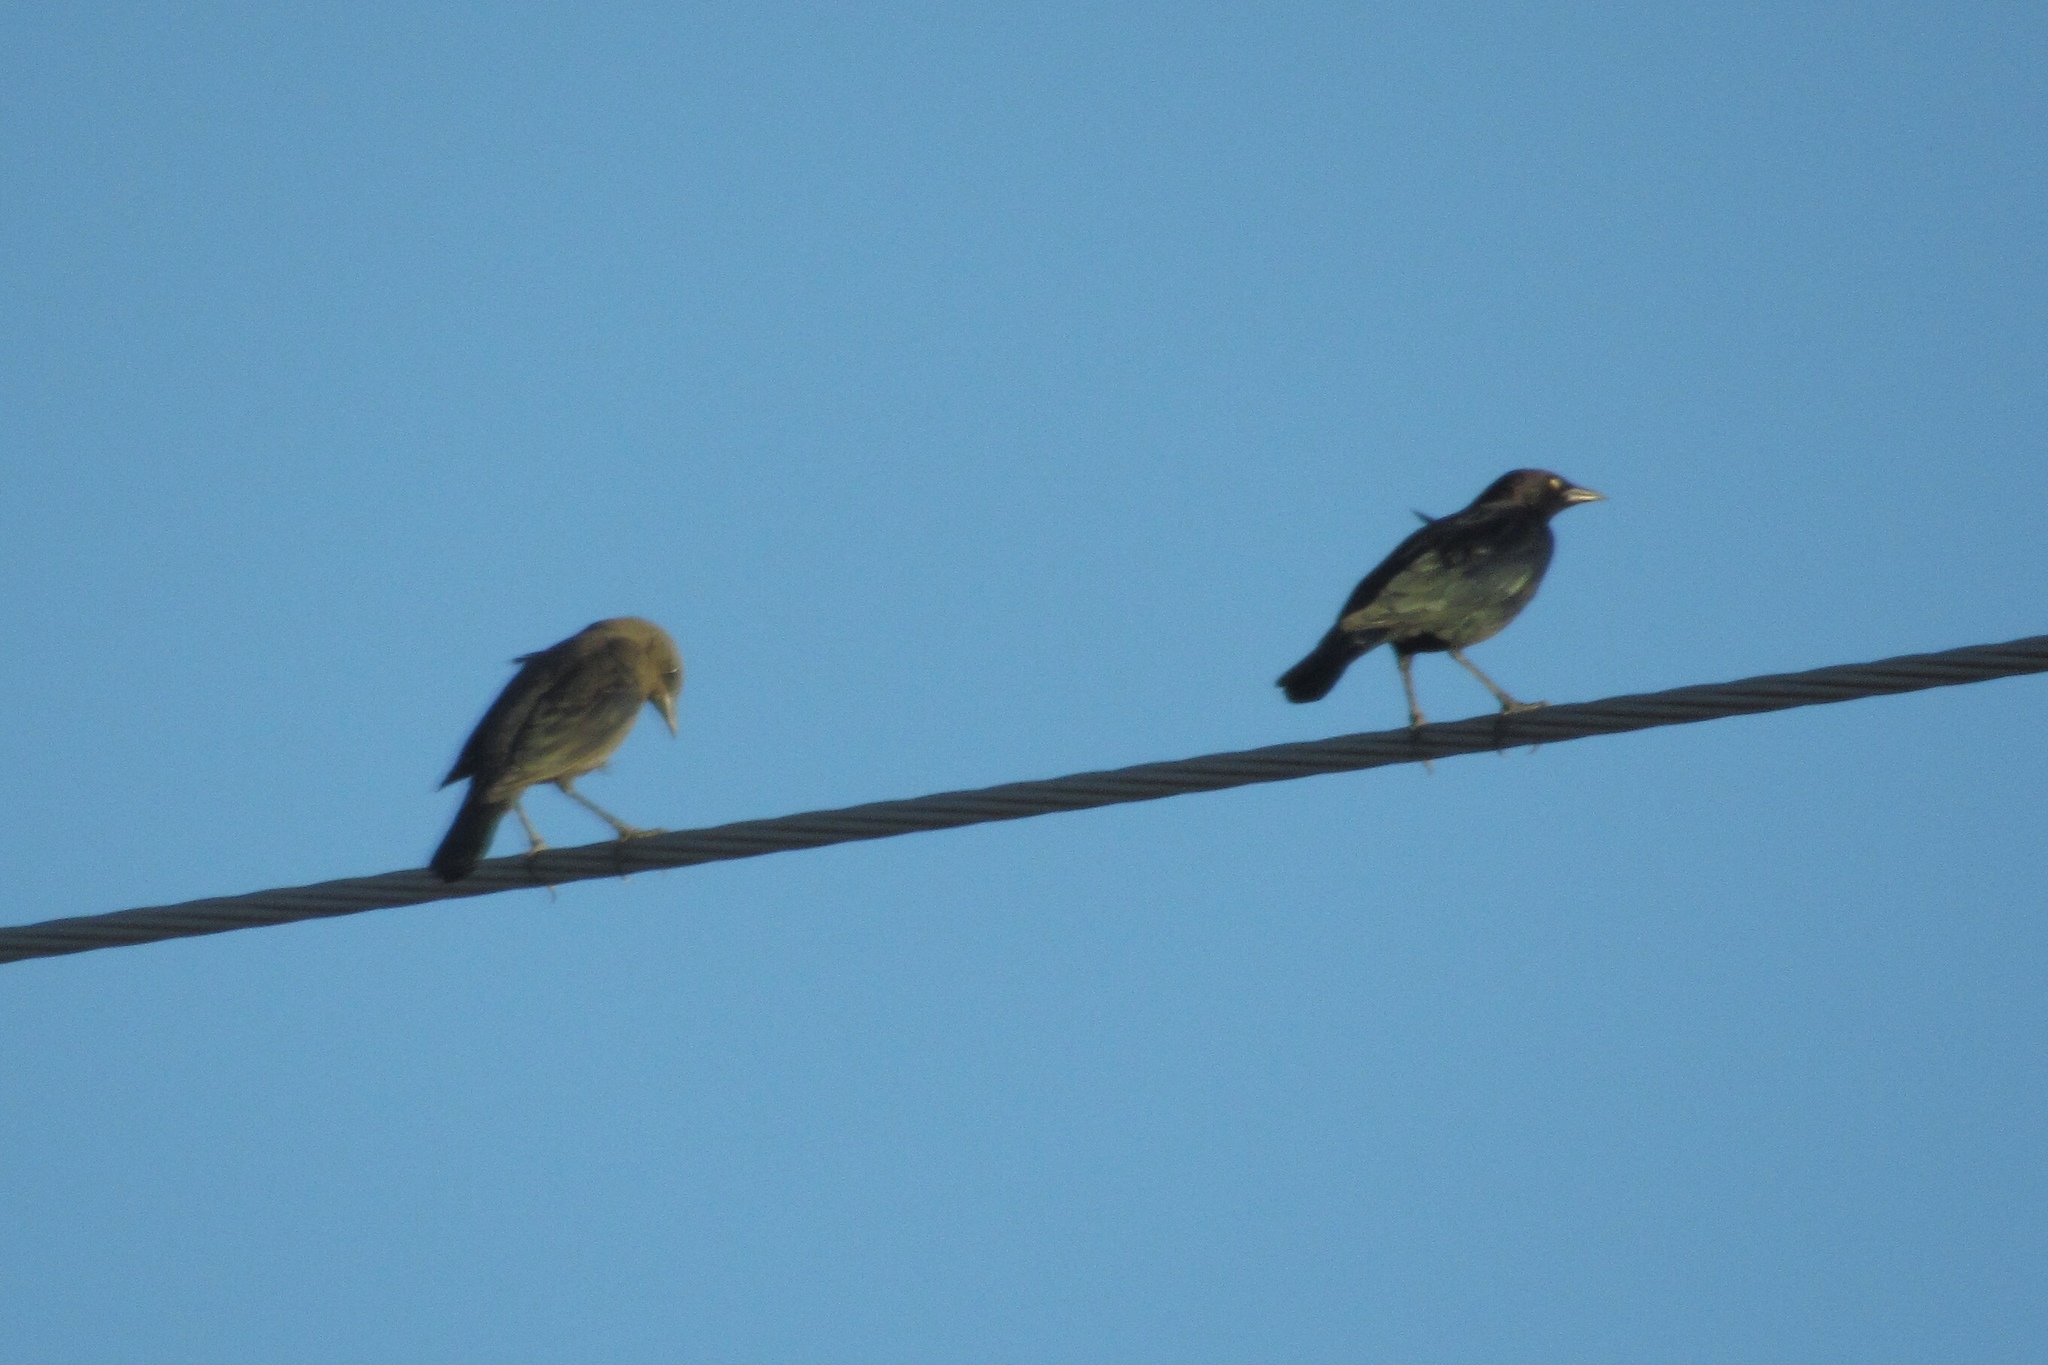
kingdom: Animalia
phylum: Chordata
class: Aves
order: Passeriformes
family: Icteridae
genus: Euphagus
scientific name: Euphagus cyanocephalus
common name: Brewer's blackbird
